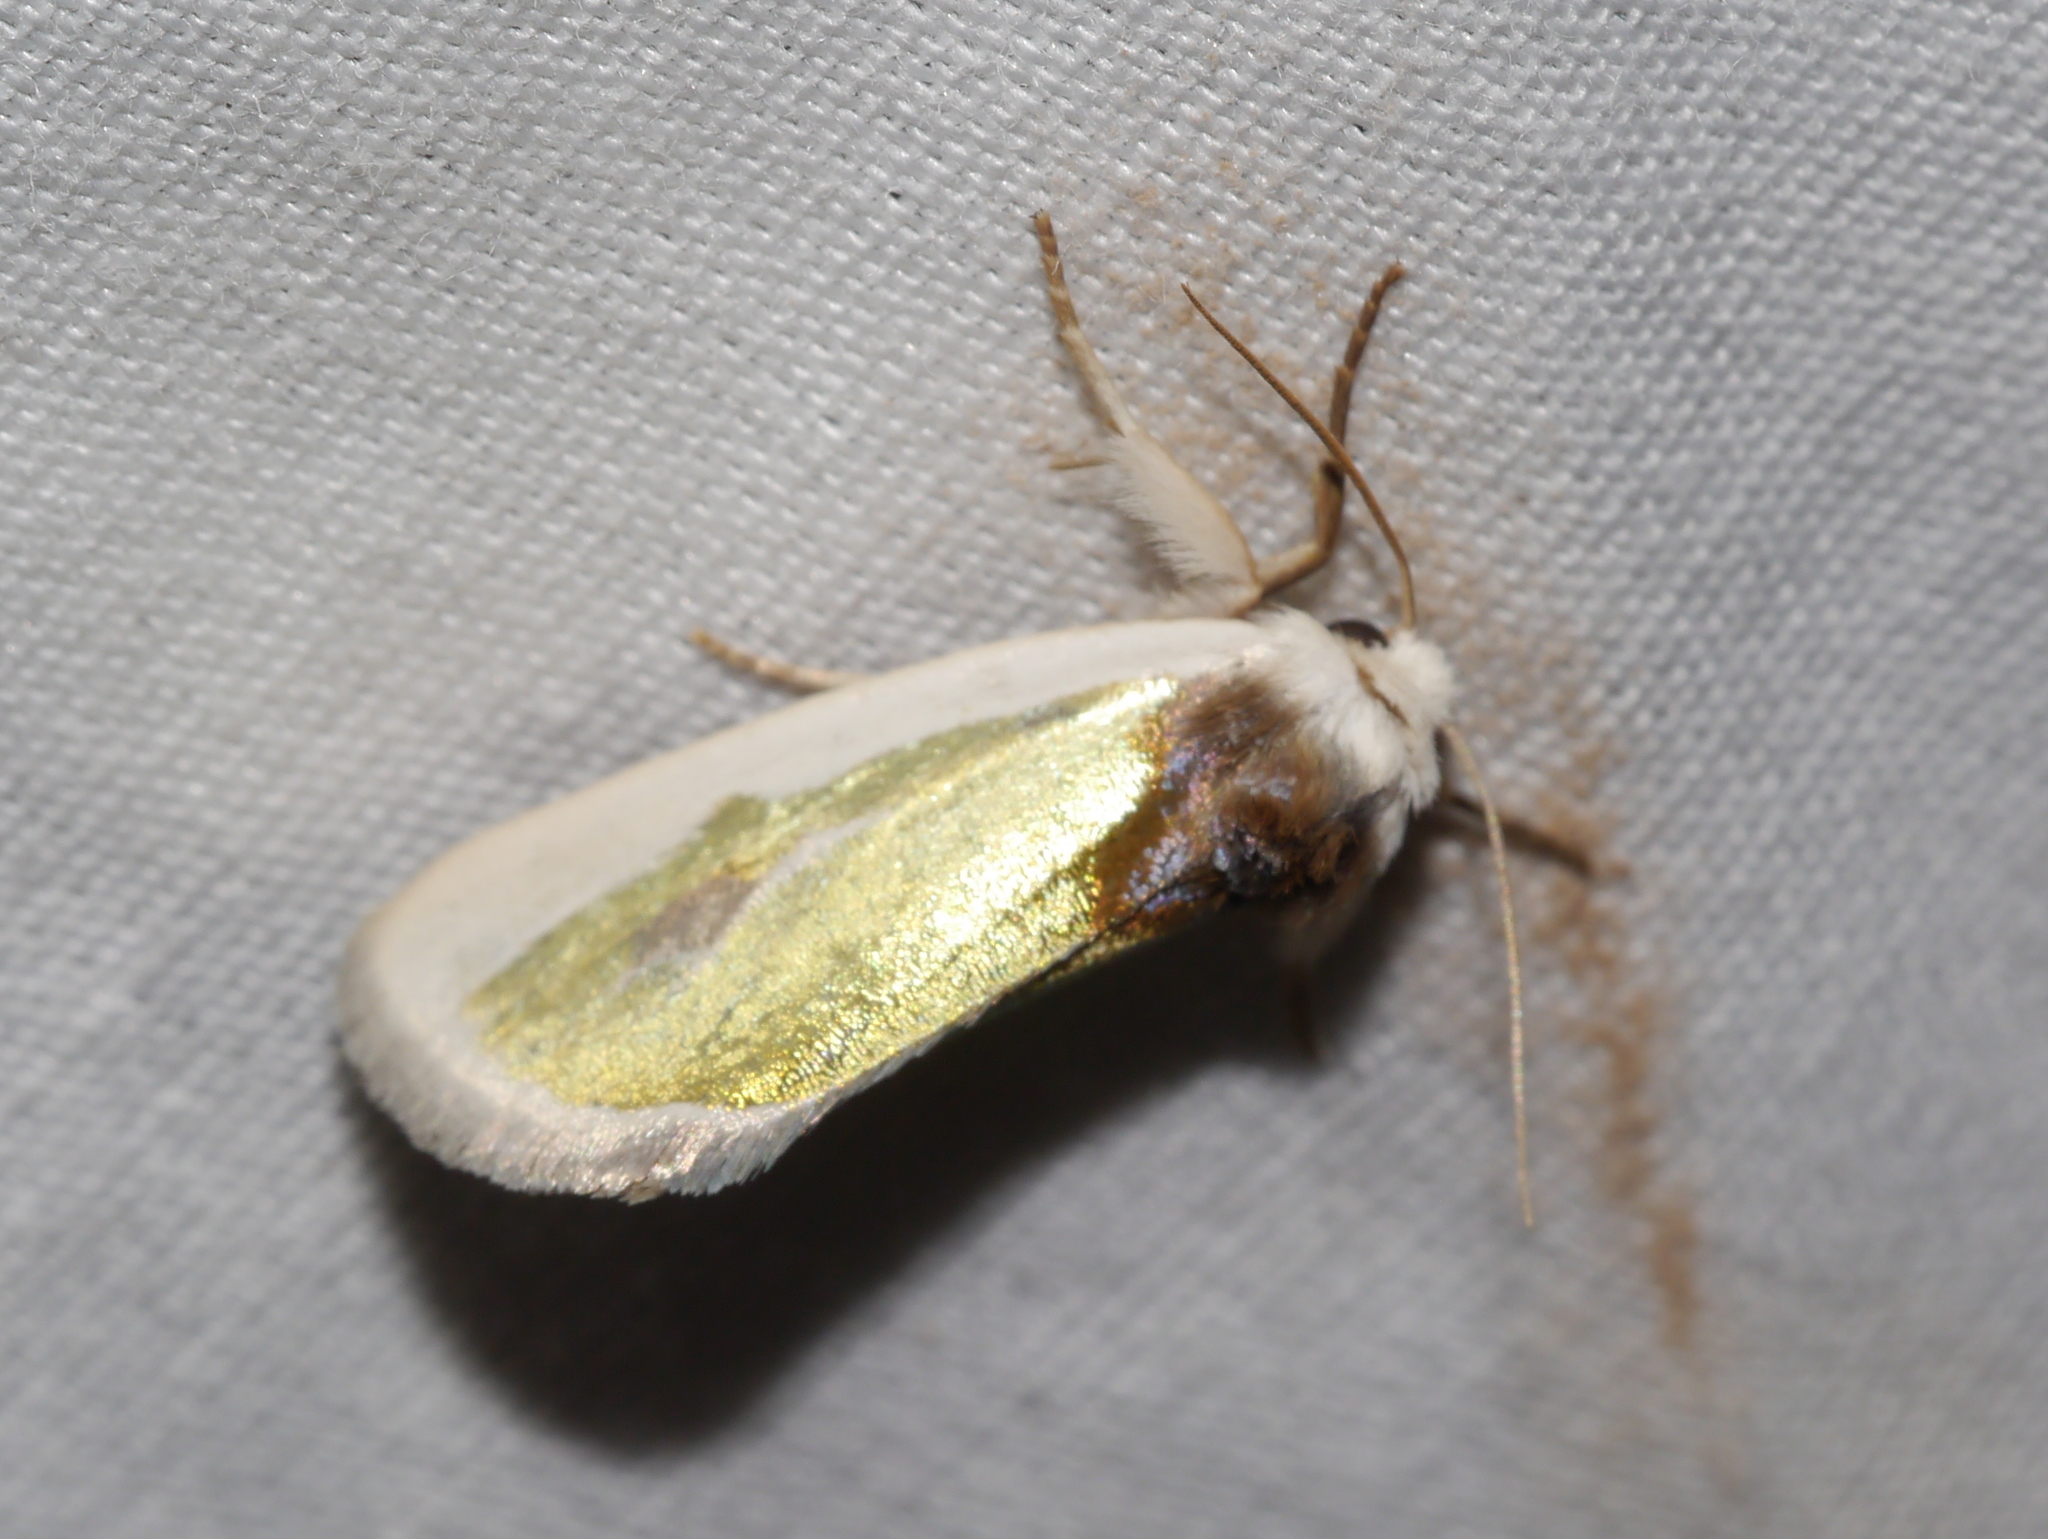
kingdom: Animalia
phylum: Arthropoda
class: Insecta
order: Lepidoptera
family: Noctuidae
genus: Neumoegenia
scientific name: Neumoegenia poetica
